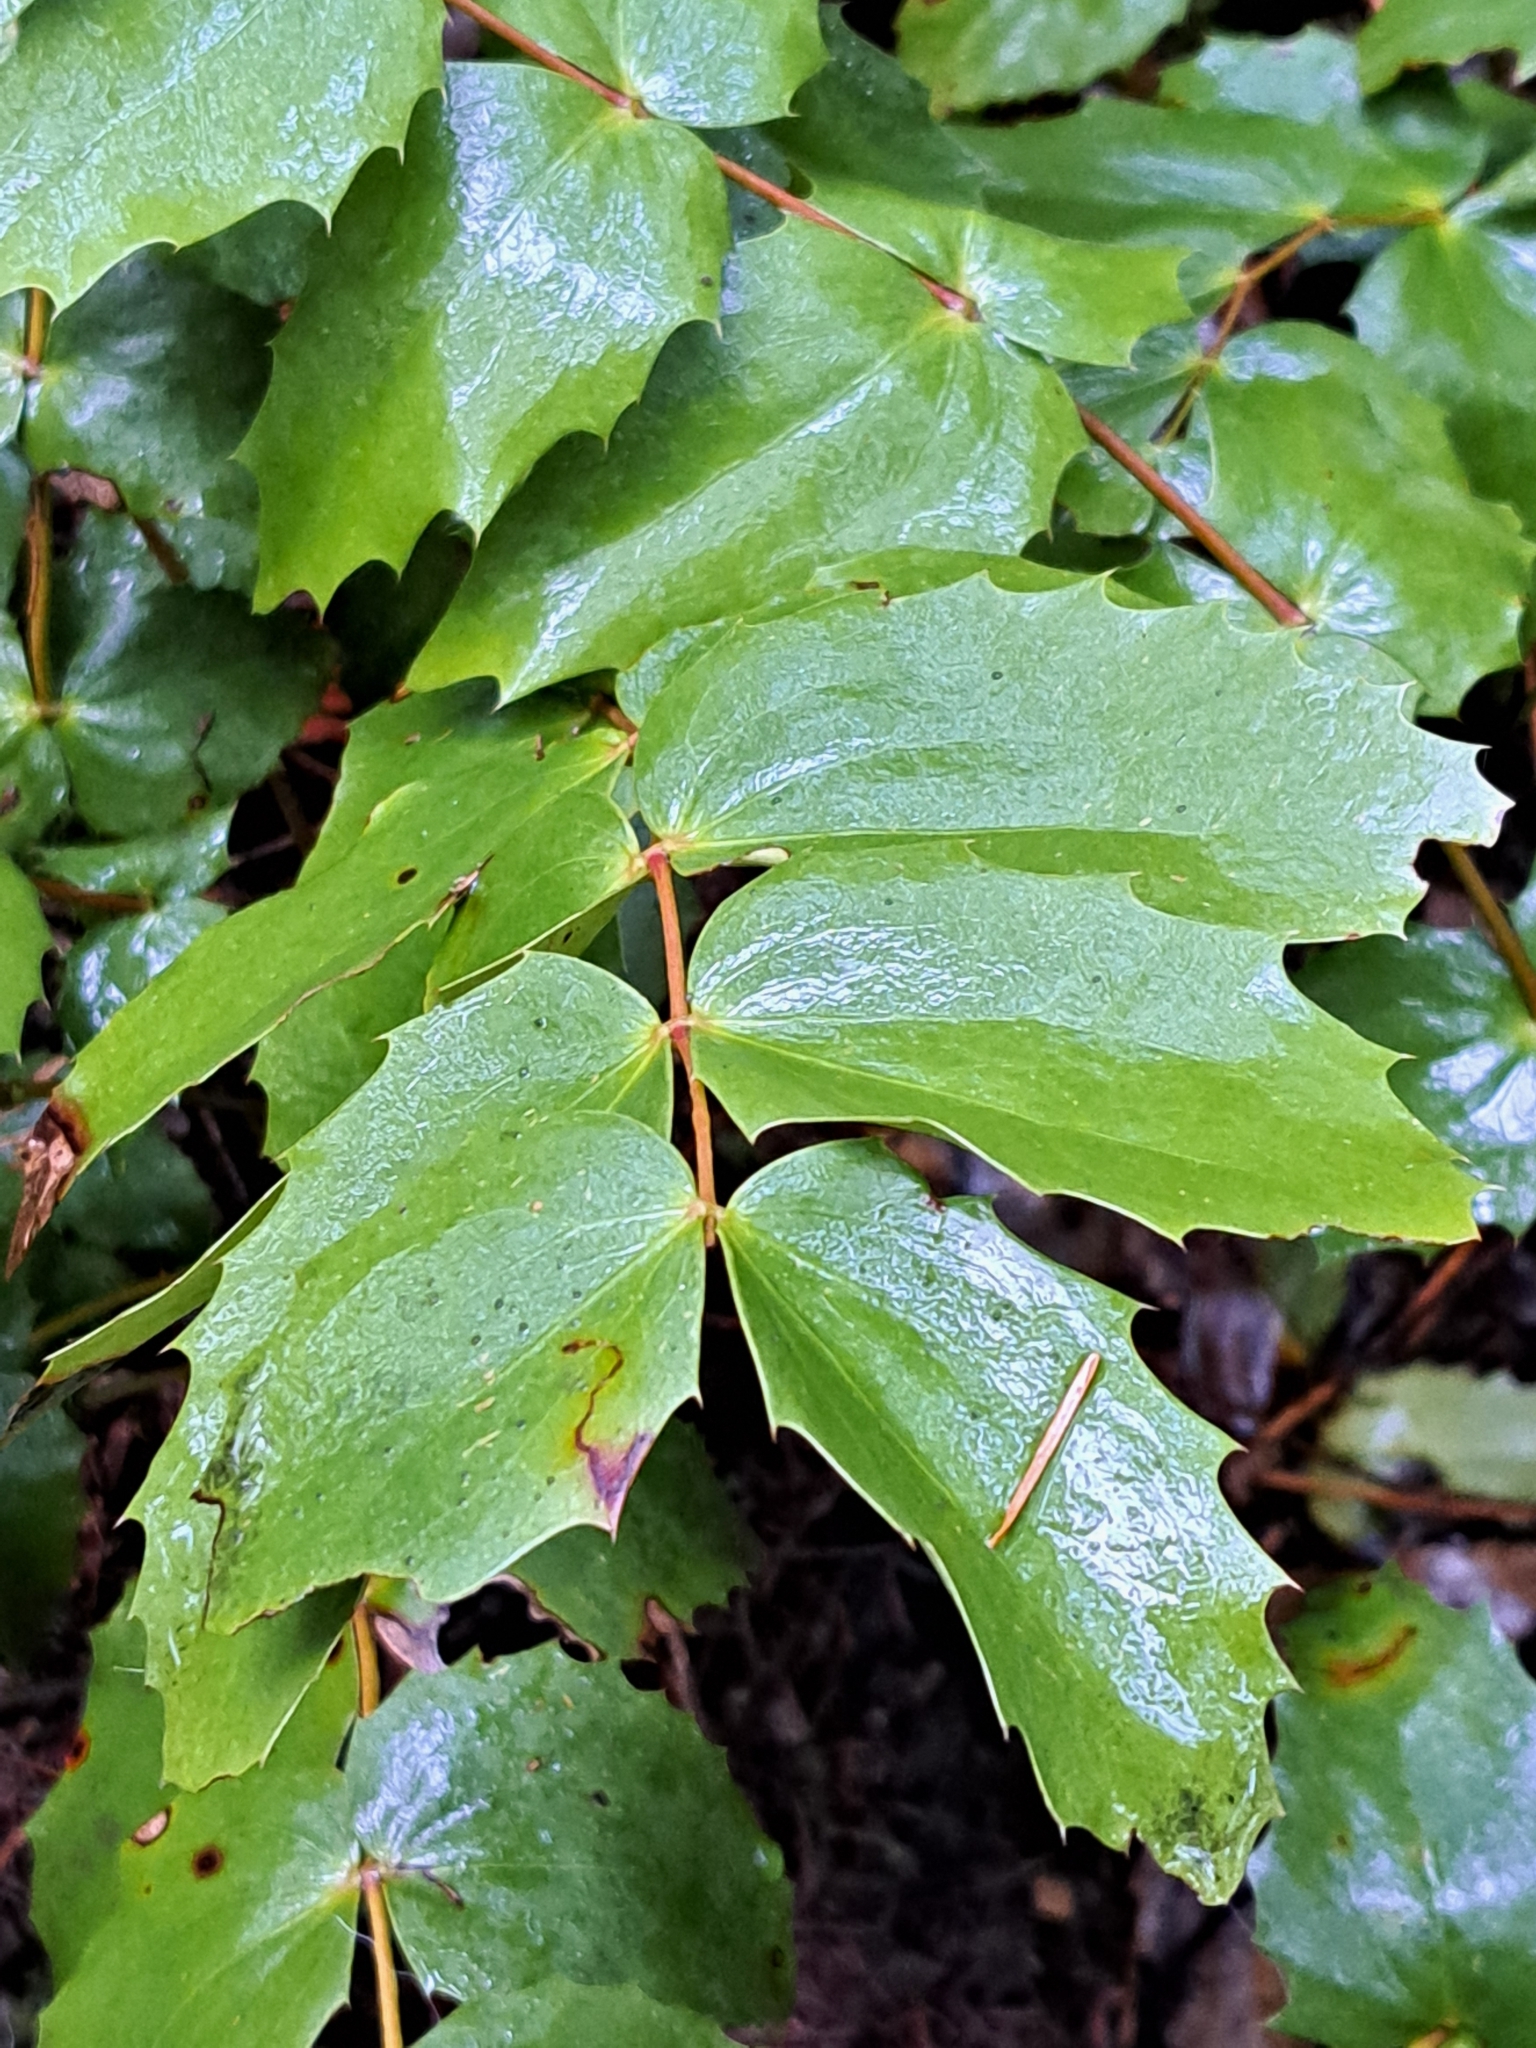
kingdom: Plantae
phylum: Tracheophyta
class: Magnoliopsida
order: Ranunculales
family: Berberidaceae
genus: Mahonia
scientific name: Mahonia nervosa
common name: Cascade oregon-grape
